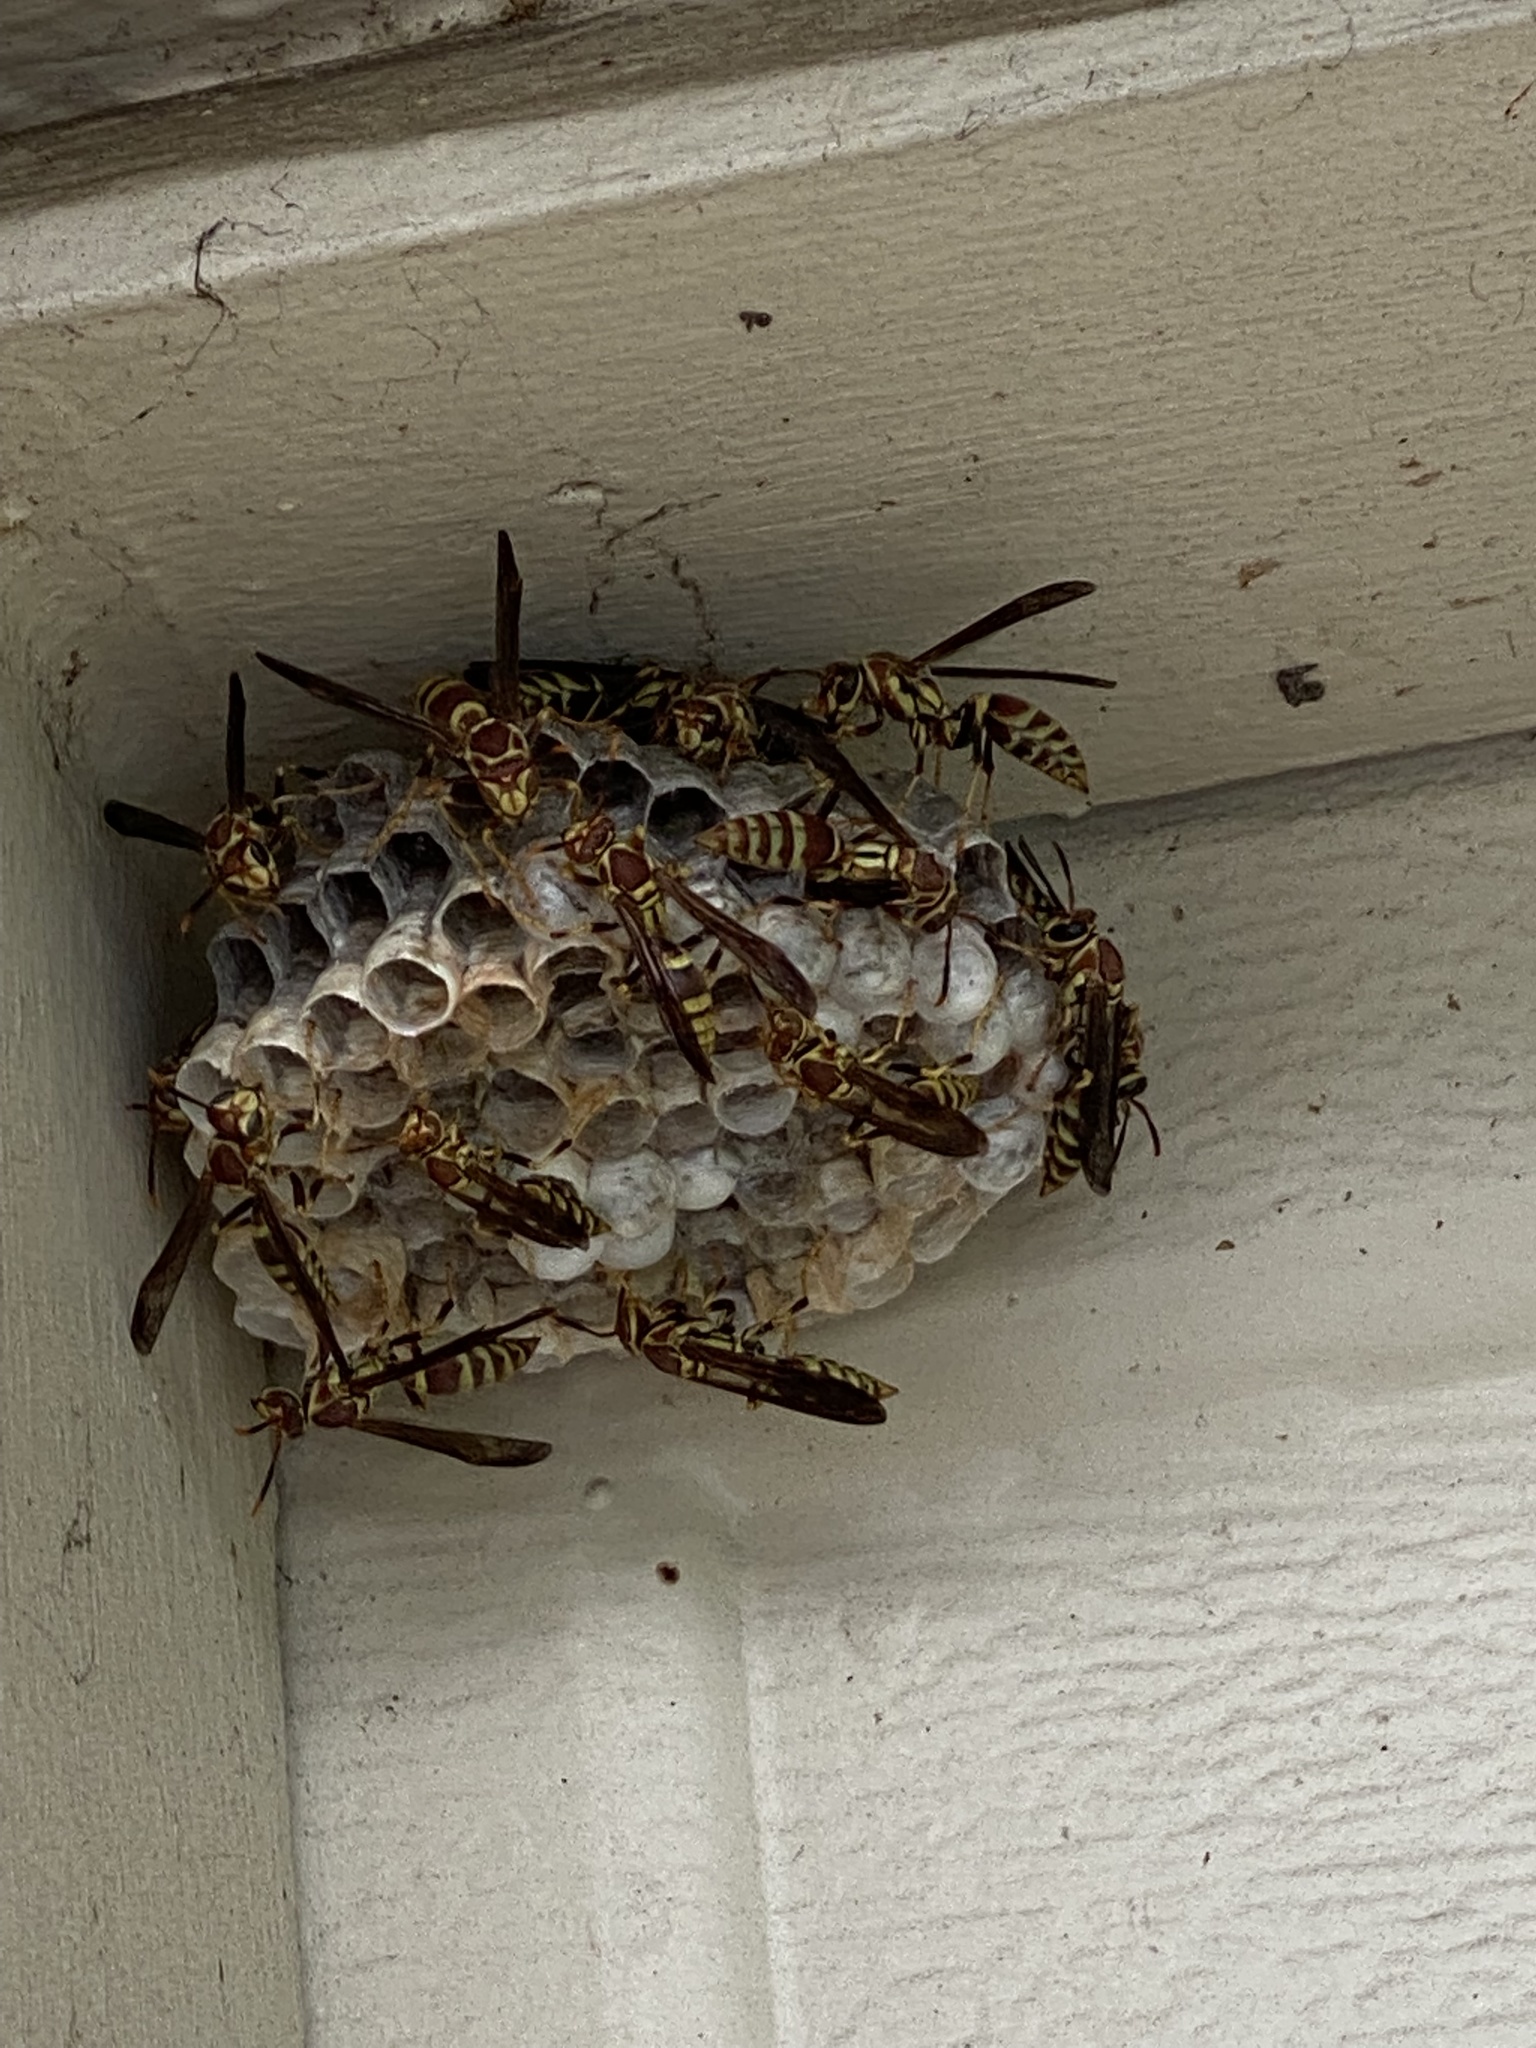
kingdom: Animalia
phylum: Arthropoda
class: Insecta
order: Hymenoptera
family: Eumenidae
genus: Polistes
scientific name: Polistes exclamans
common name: Paper wasp
